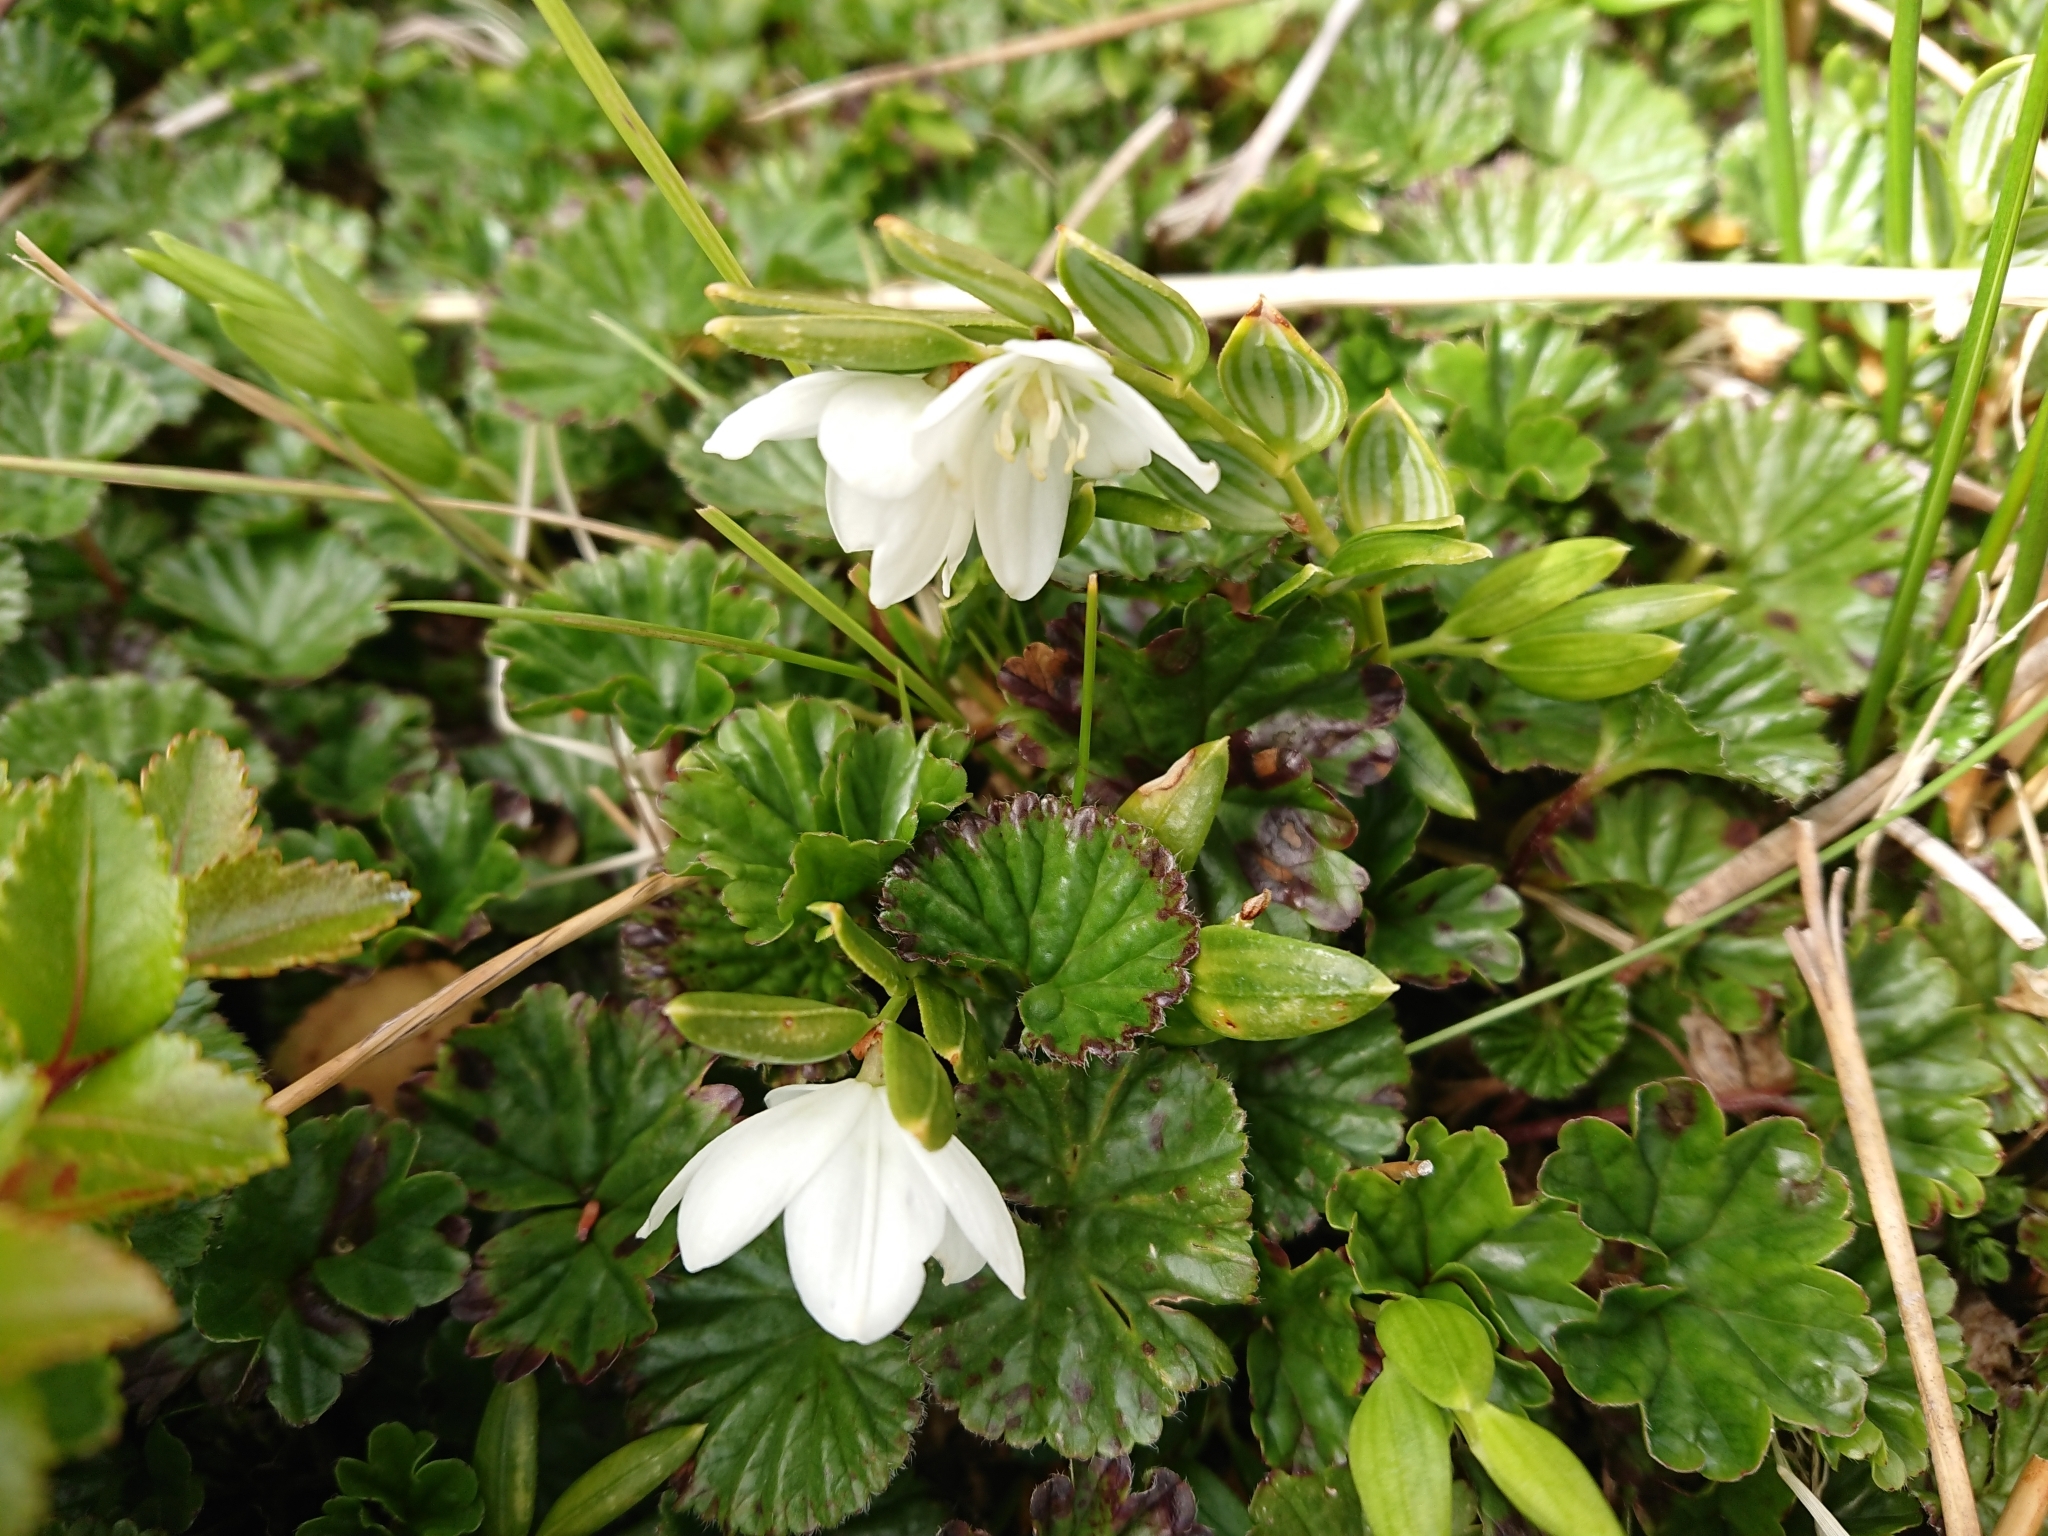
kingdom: Plantae
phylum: Tracheophyta
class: Liliopsida
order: Liliales
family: Alstroemeriaceae
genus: Luzuriaga
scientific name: Luzuriaga marginata
